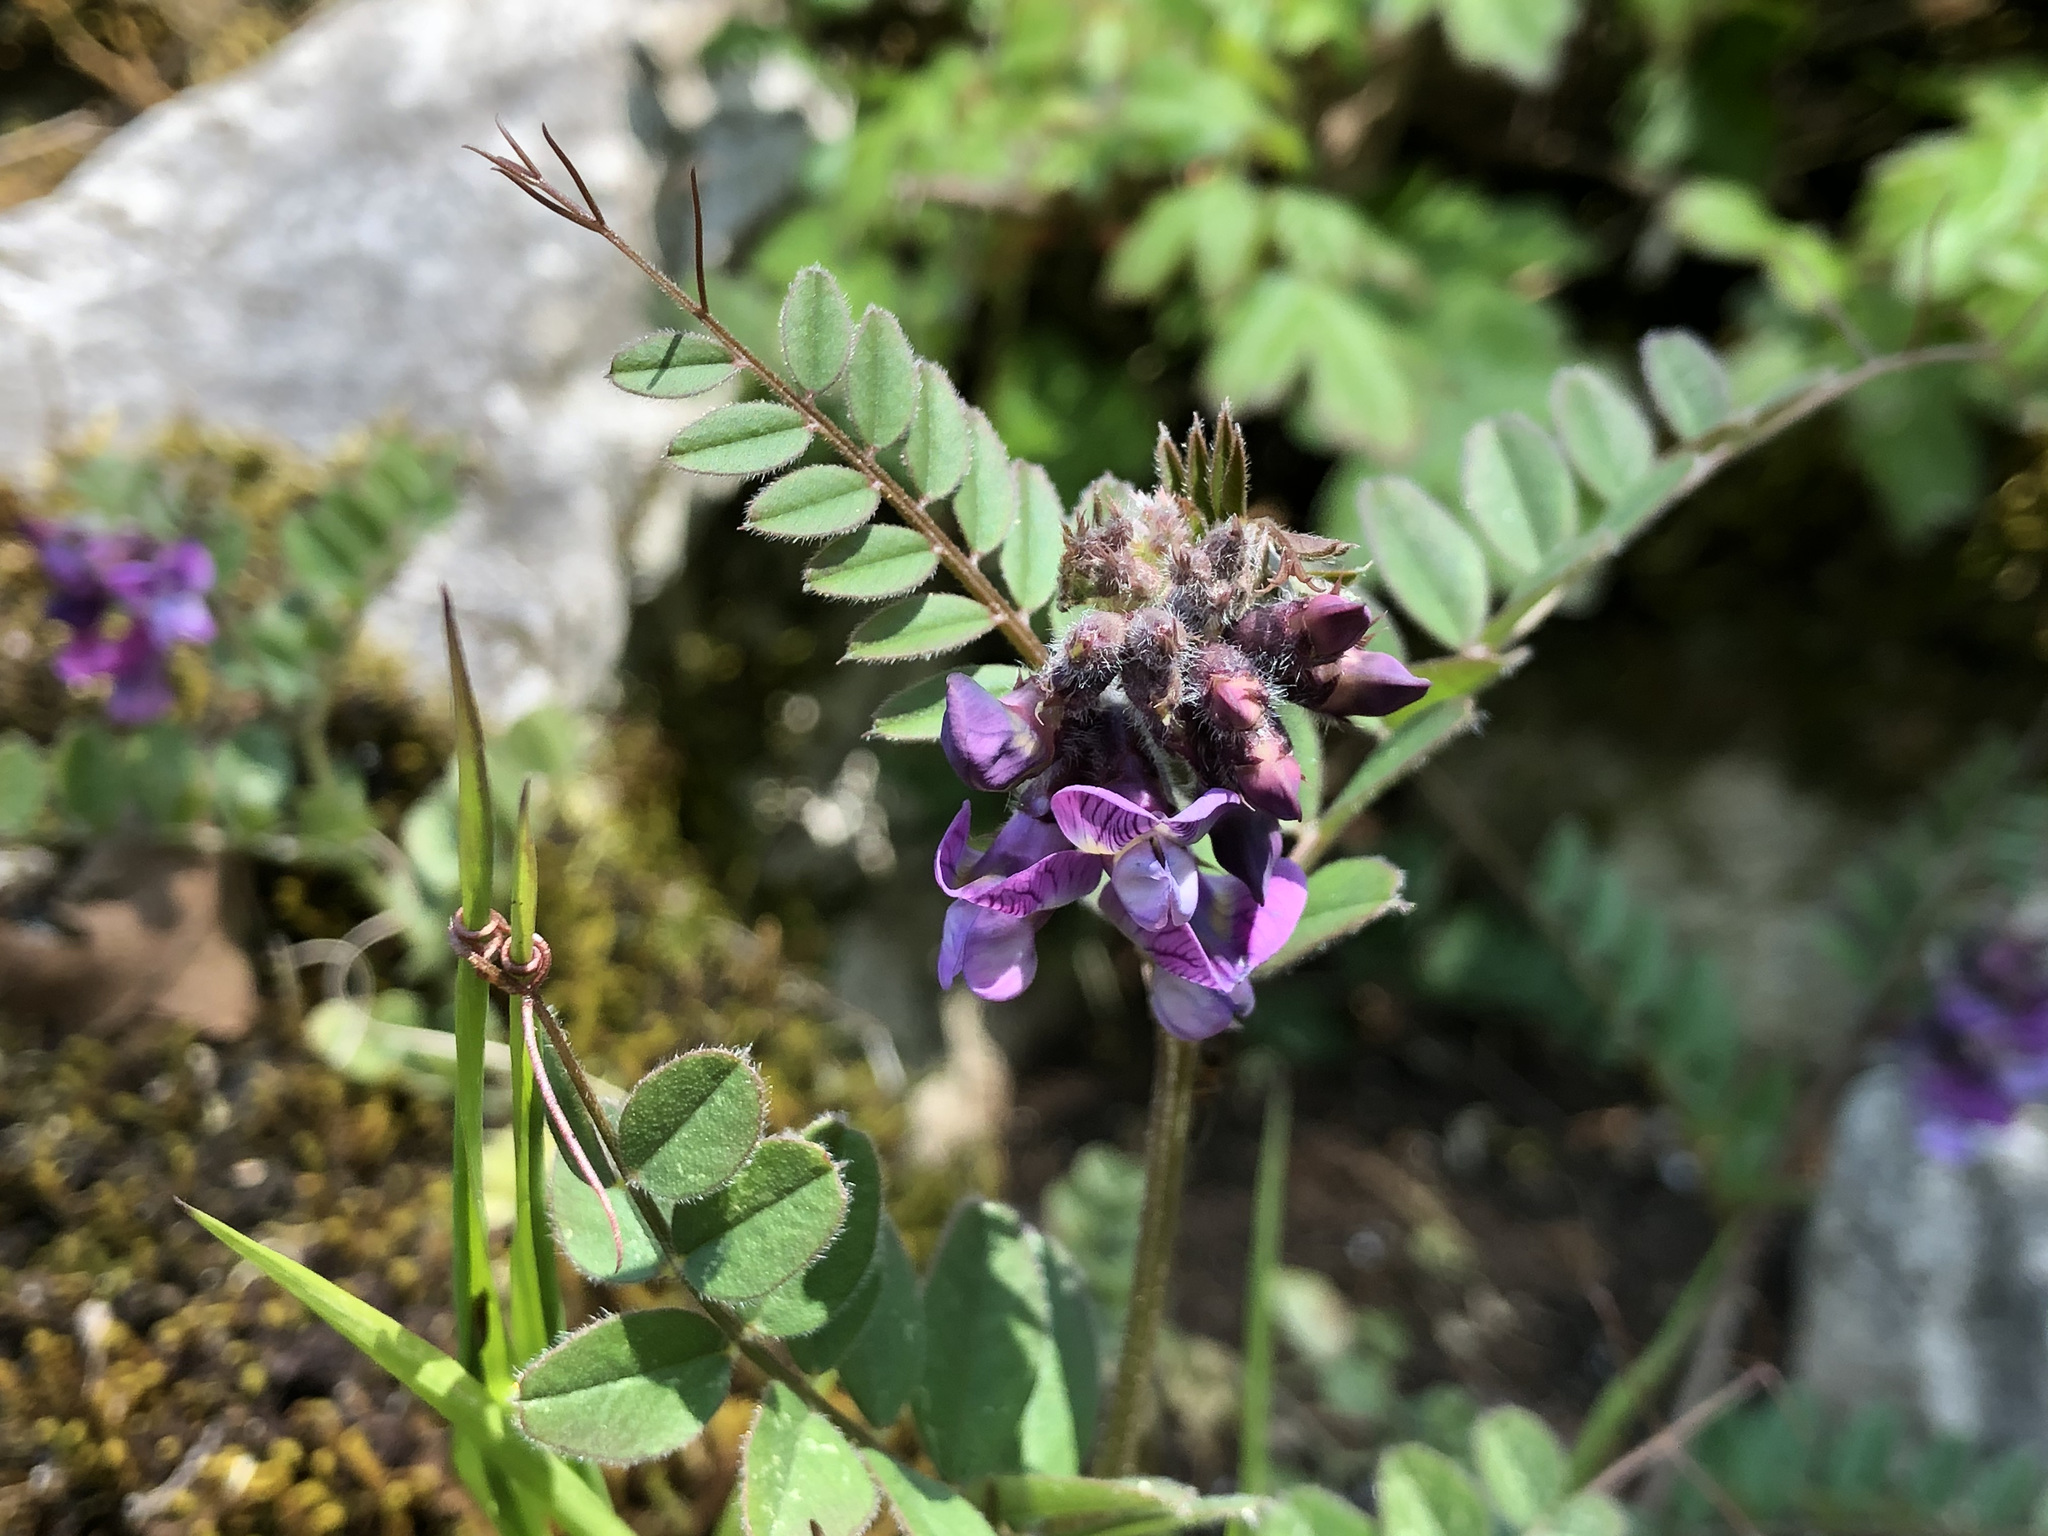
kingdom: Plantae
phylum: Tracheophyta
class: Magnoliopsida
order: Fabales
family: Fabaceae
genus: Vicia
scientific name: Vicia sepium
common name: Bush vetch
